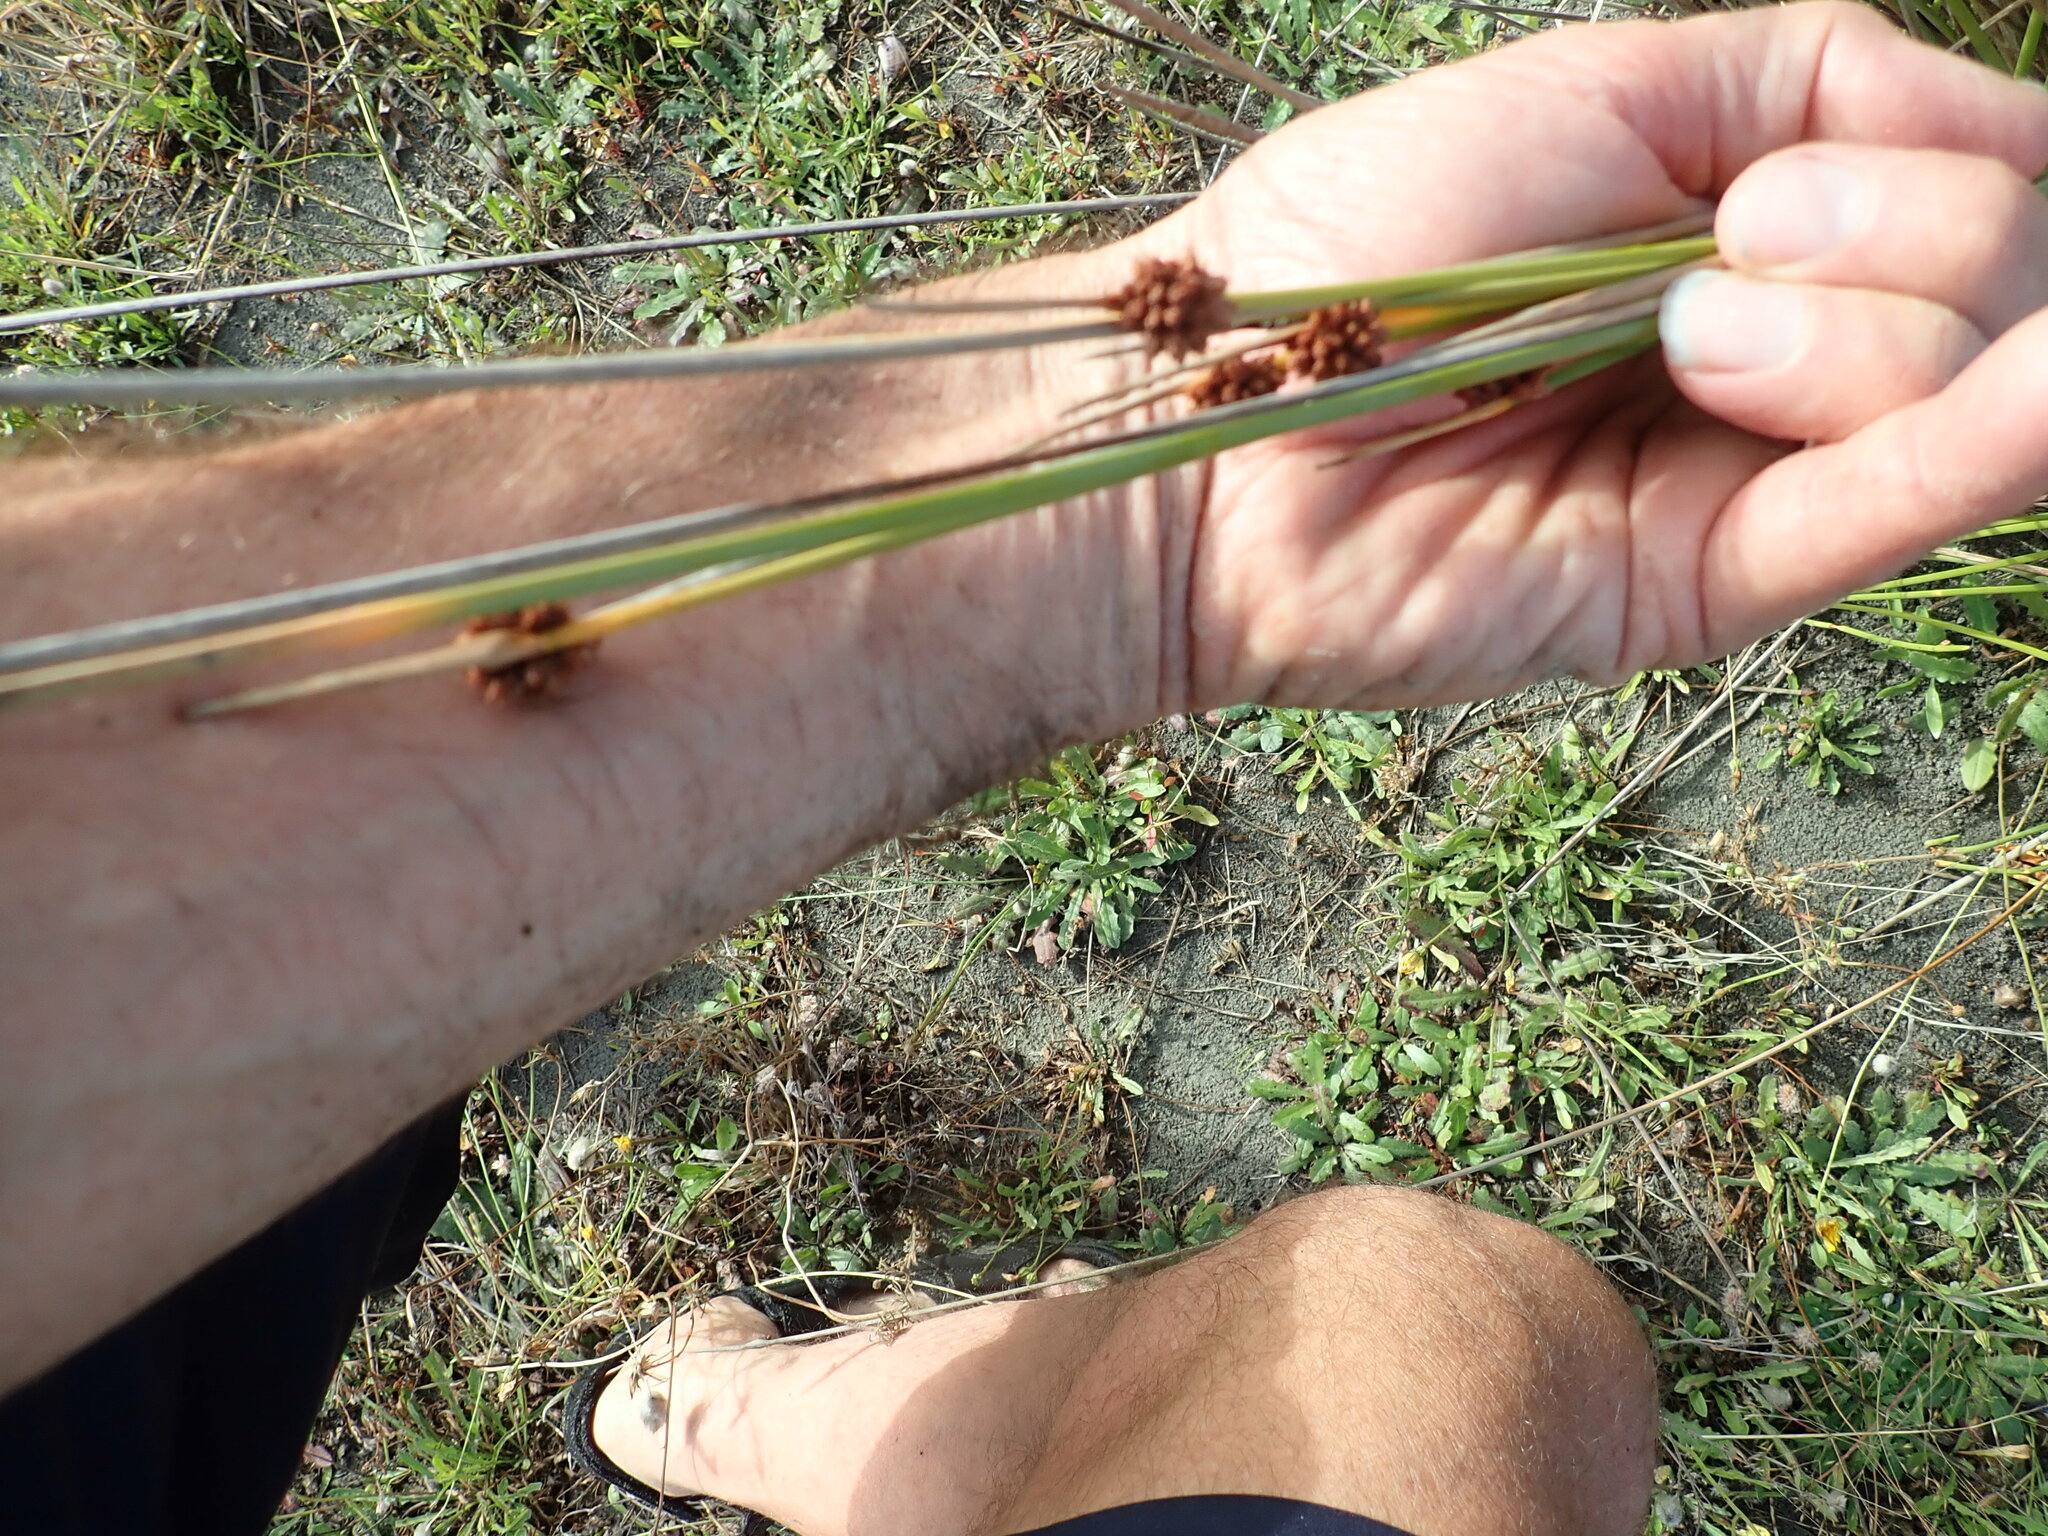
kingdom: Plantae
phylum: Tracheophyta
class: Liliopsida
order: Poales
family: Cyperaceae
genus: Ficinia
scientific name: Ficinia nodosa
